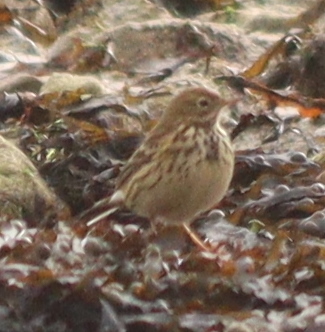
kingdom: Animalia
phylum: Chordata
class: Aves
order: Passeriformes
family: Motacillidae
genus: Anthus
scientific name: Anthus pratensis
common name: Meadow pipit
